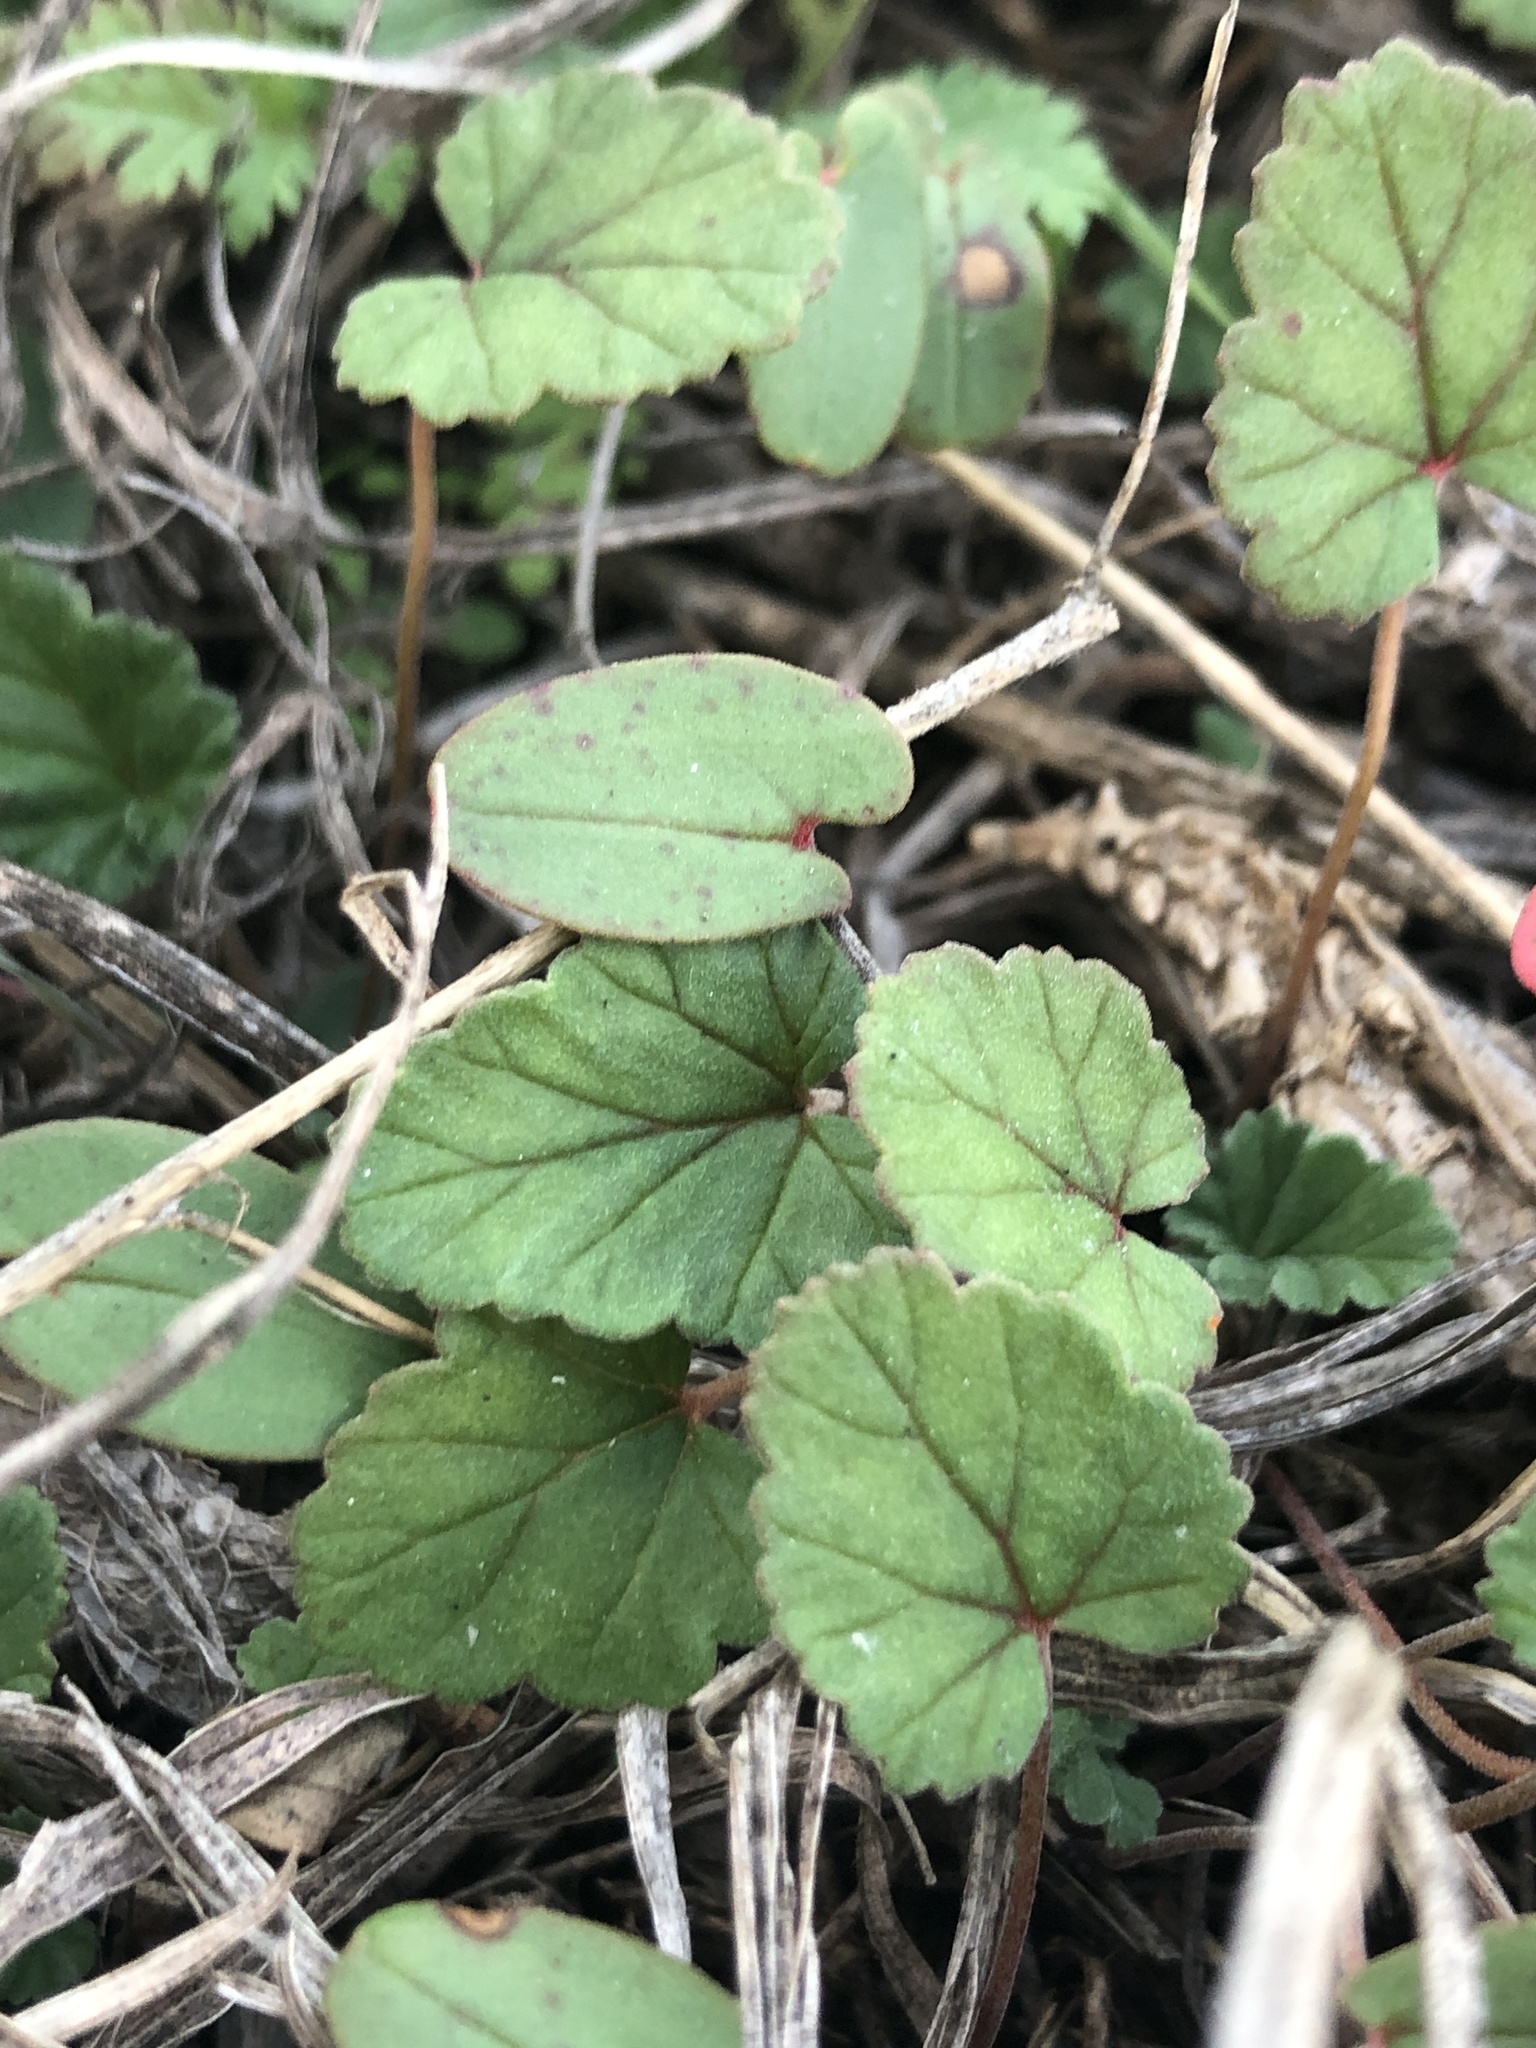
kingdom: Plantae
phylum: Tracheophyta
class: Magnoliopsida
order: Lamiales
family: Lamiaceae
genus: Lamium
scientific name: Lamium amplexicaule
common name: Henbit dead-nettle
